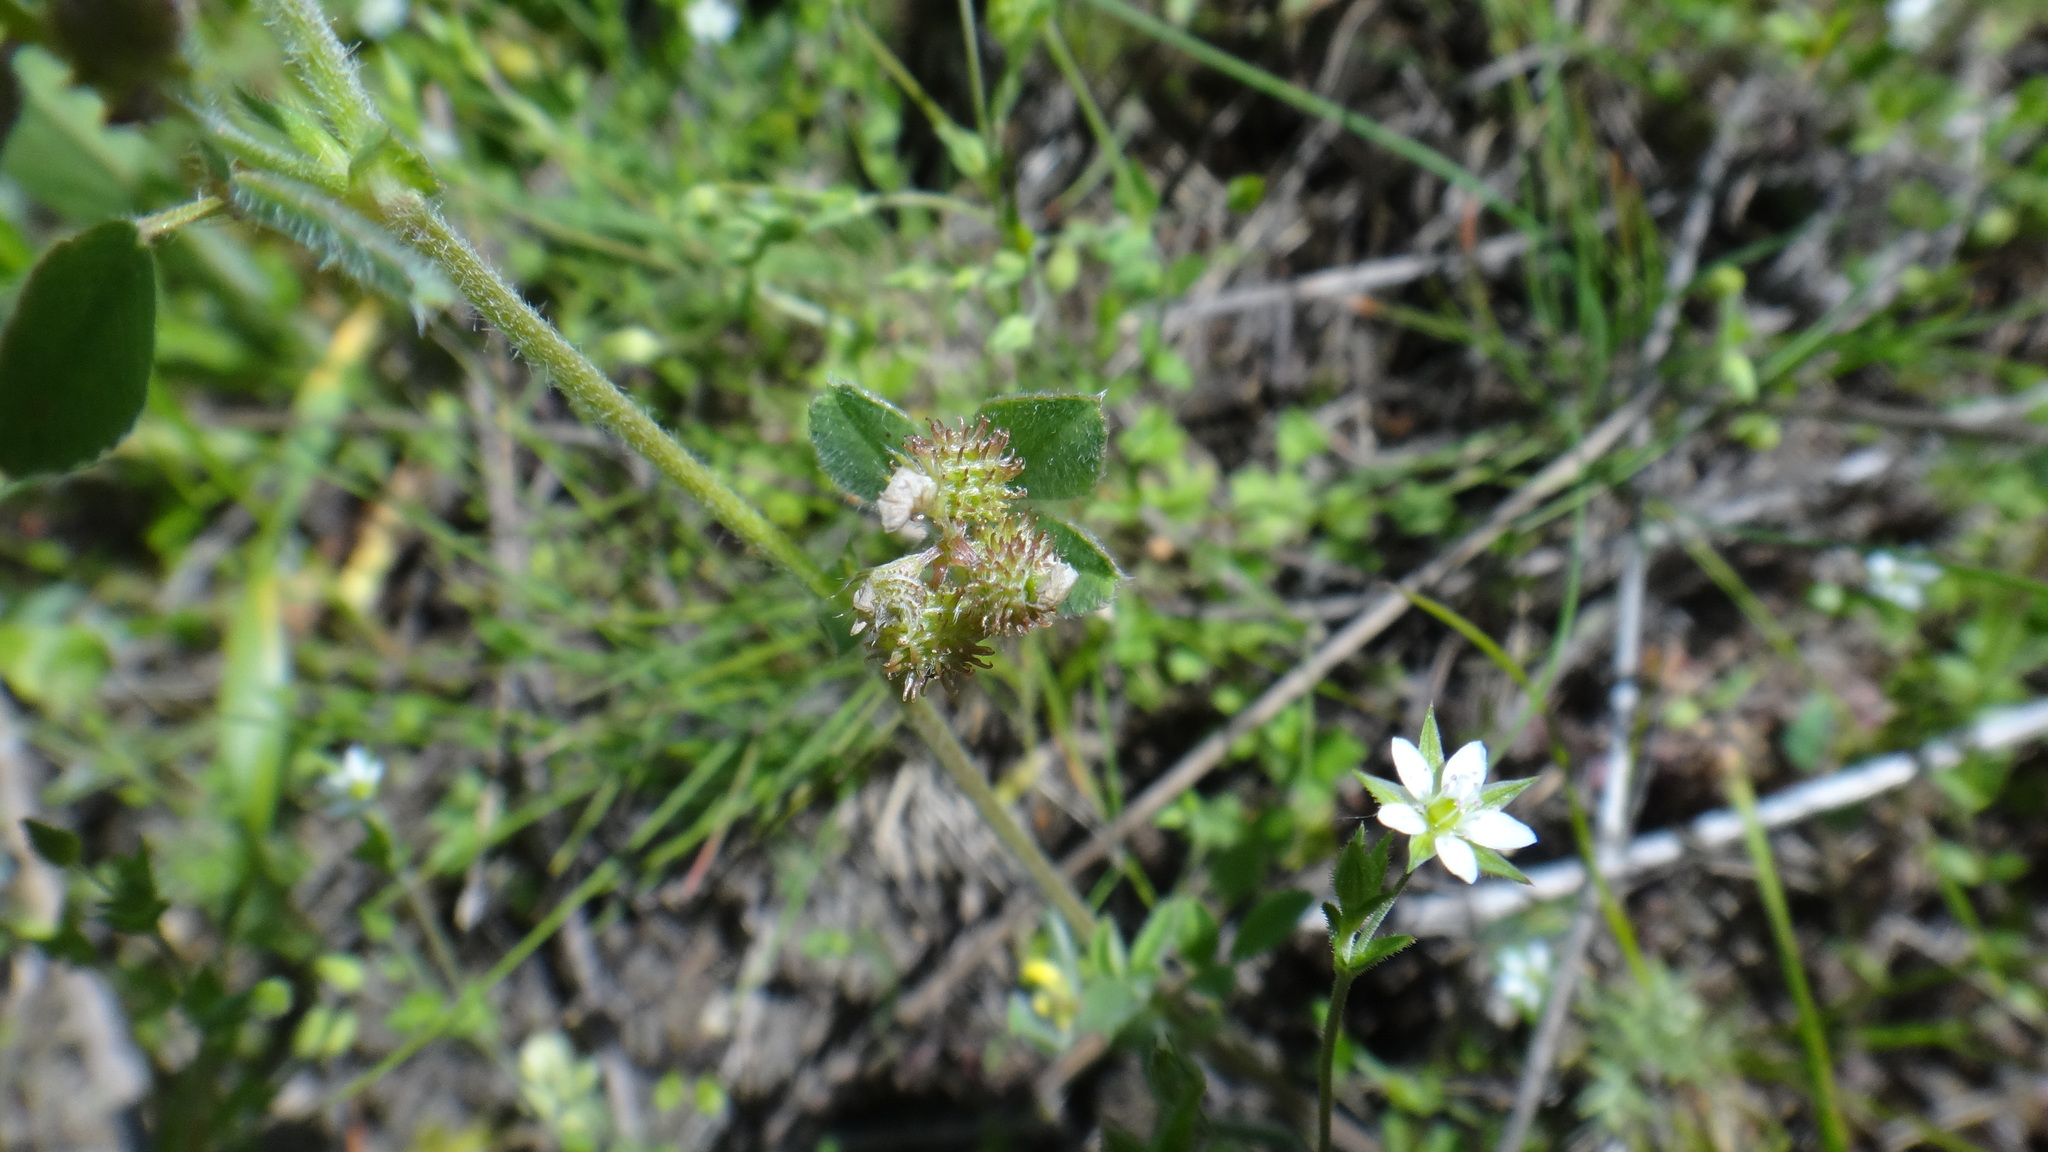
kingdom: Plantae
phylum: Tracheophyta
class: Magnoliopsida
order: Fabales
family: Fabaceae
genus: Medicago
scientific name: Medicago minima
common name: Little bur-clover
